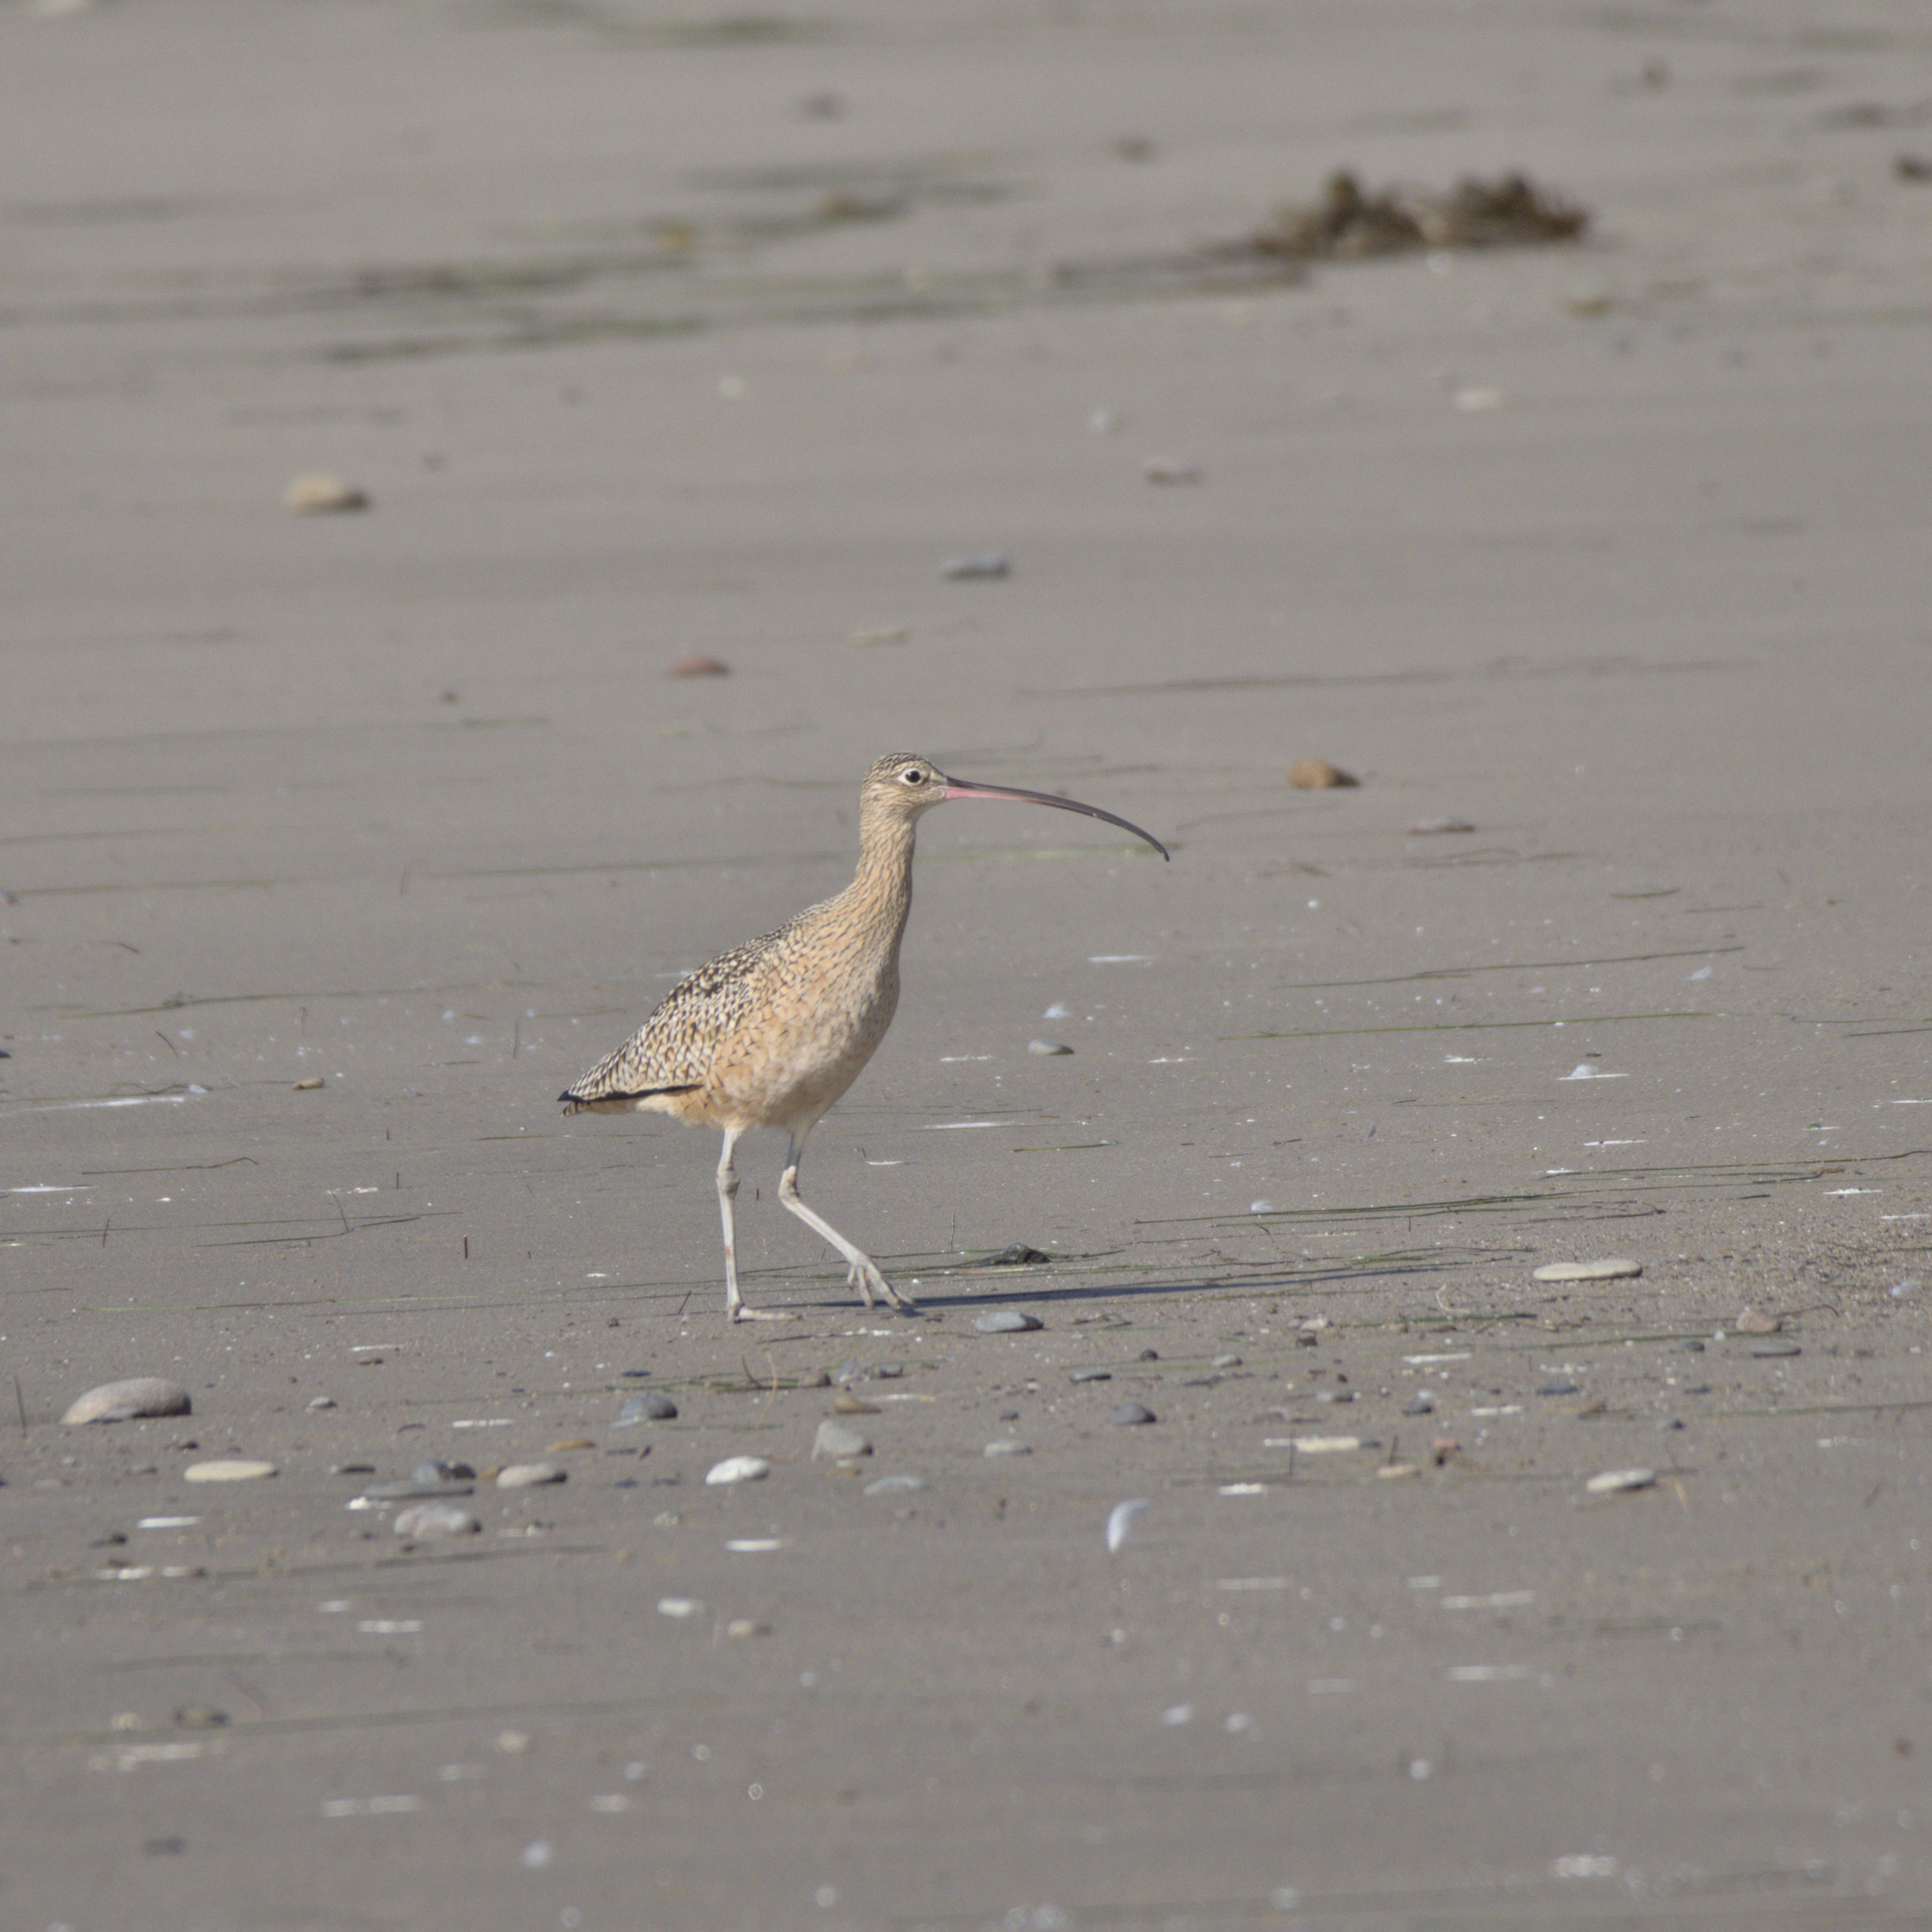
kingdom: Animalia
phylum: Chordata
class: Aves
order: Charadriiformes
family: Scolopacidae
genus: Numenius
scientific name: Numenius americanus
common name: Long-billed curlew
